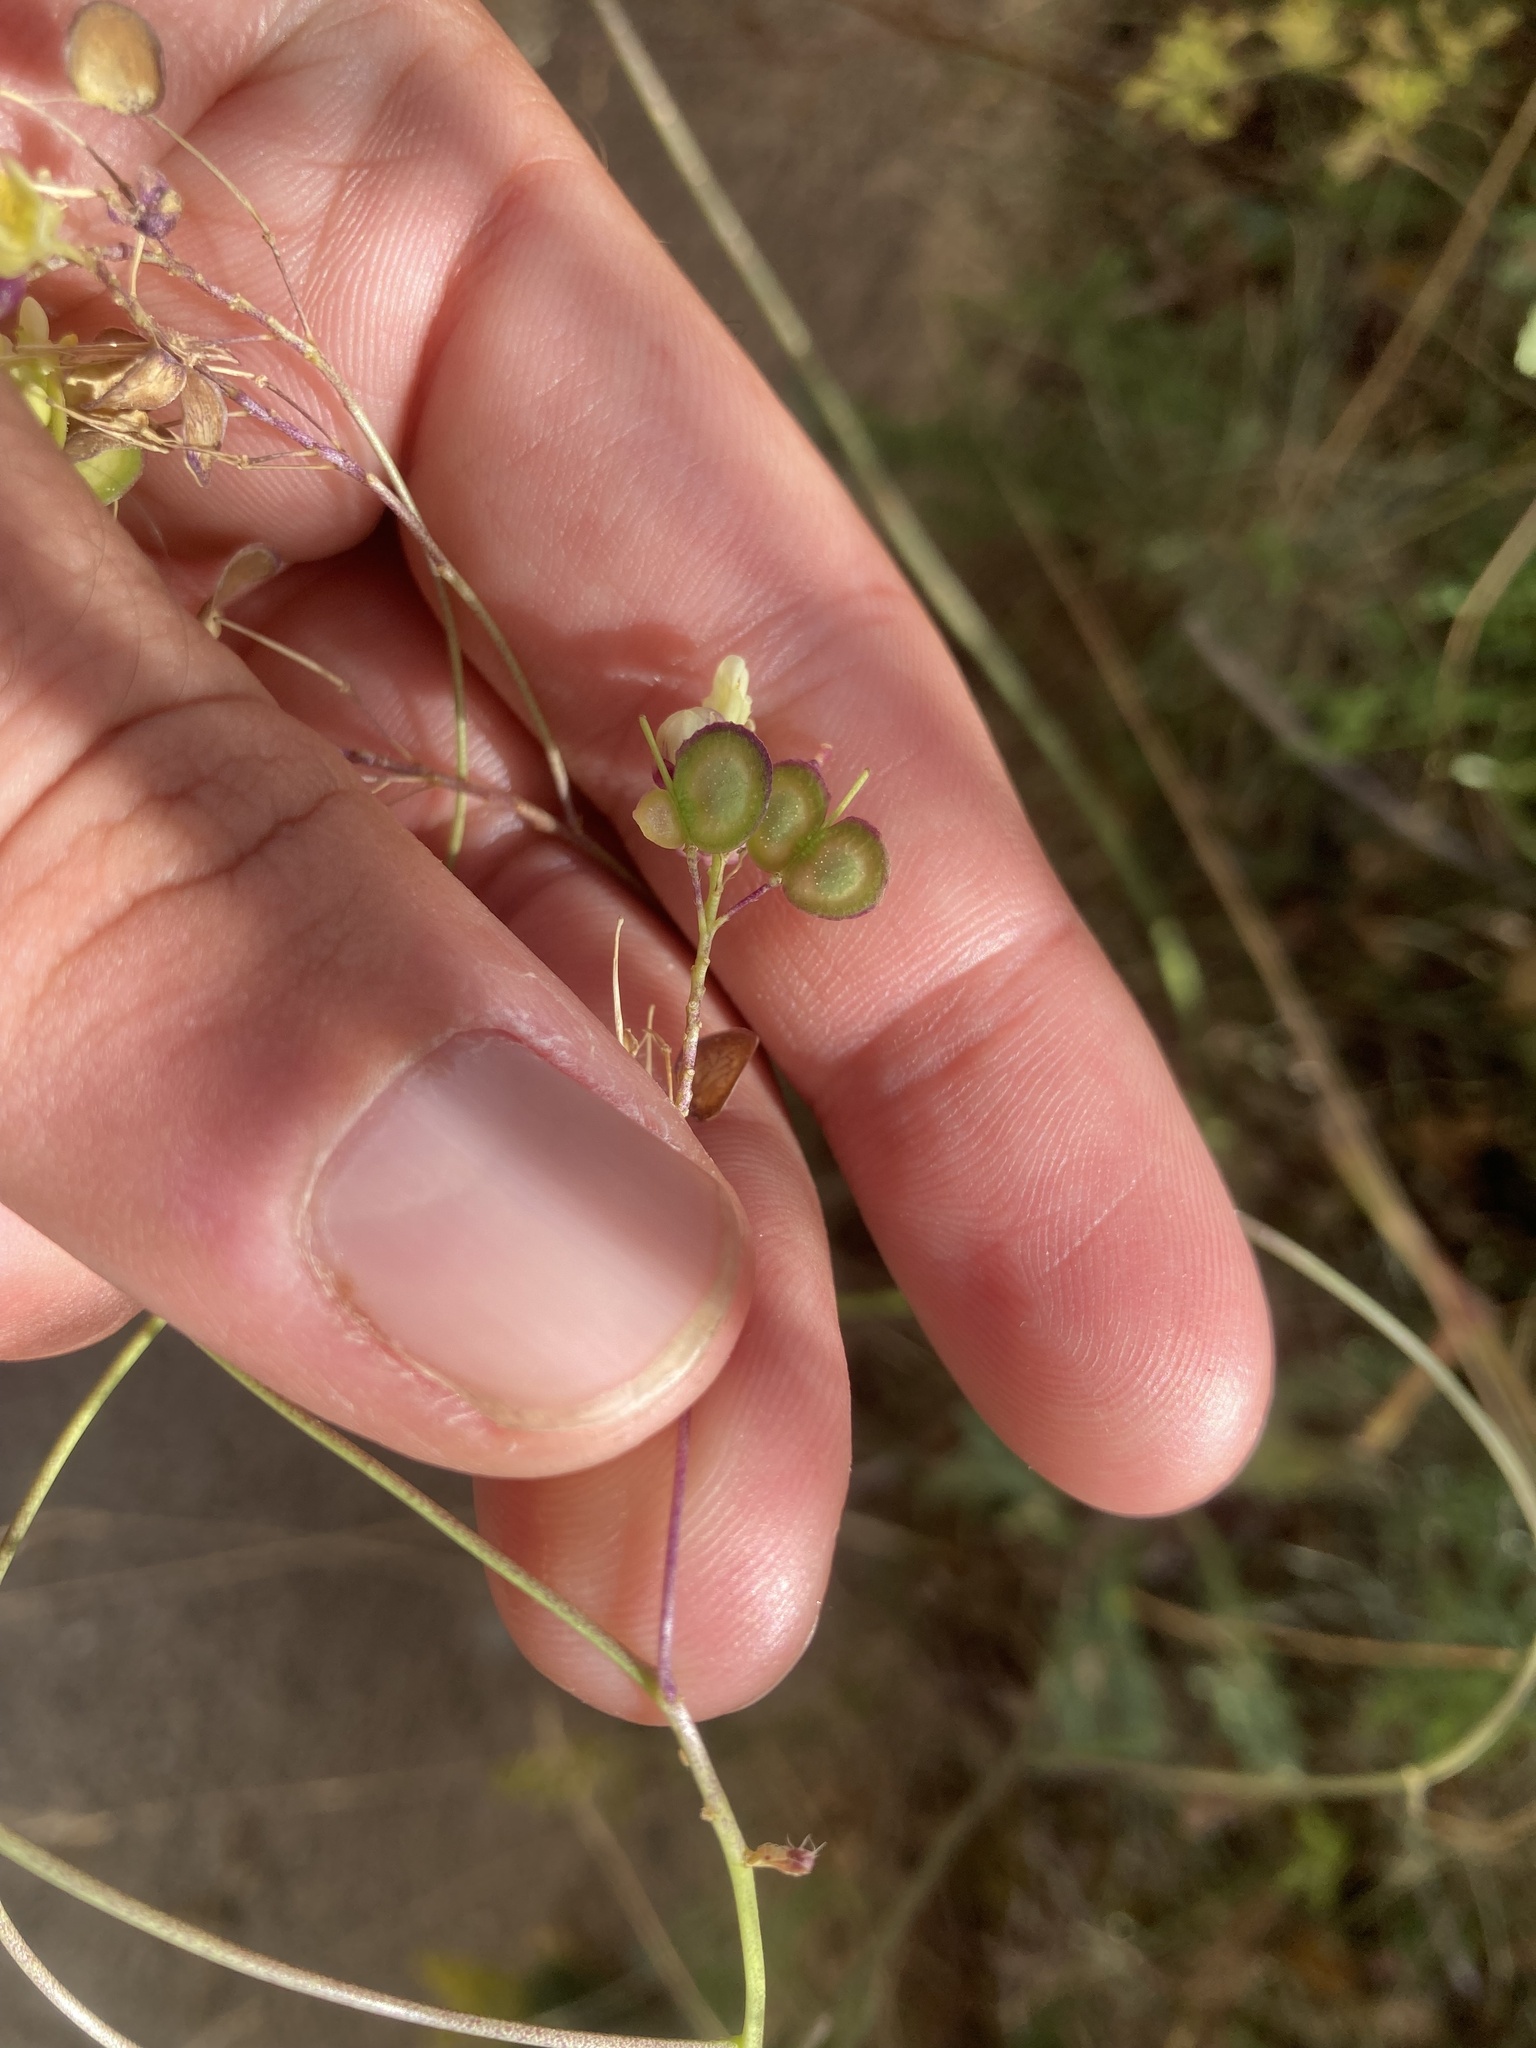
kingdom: Plantae
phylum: Tracheophyta
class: Magnoliopsida
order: Brassicales
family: Brassicaceae
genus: Biscutella
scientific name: Biscutella laevigata
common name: Buckler mustard
